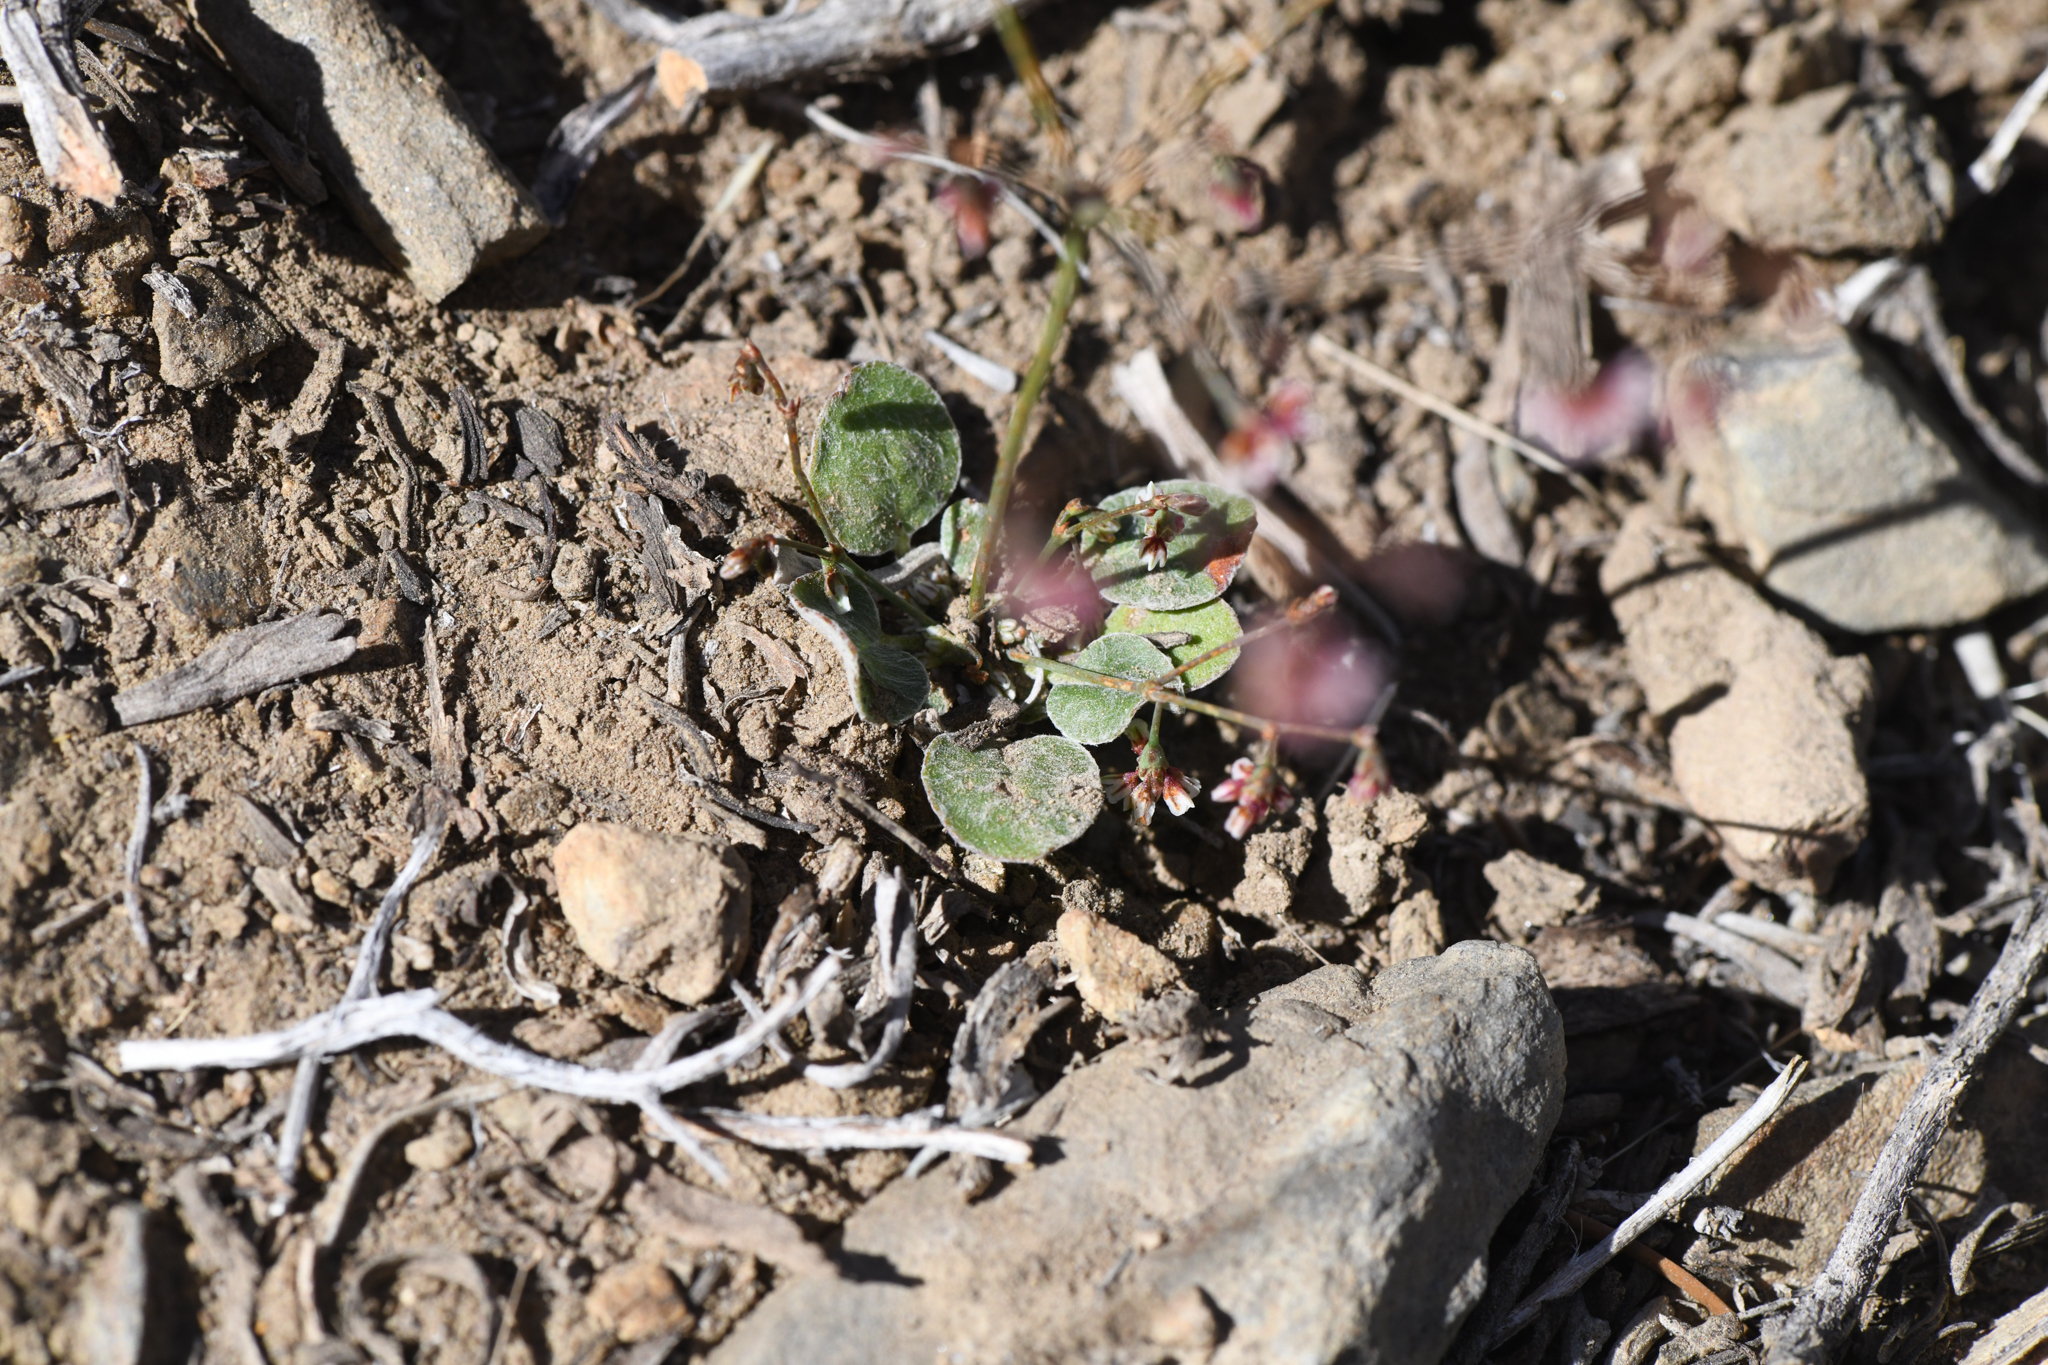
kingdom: Plantae
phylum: Tracheophyta
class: Magnoliopsida
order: Caryophyllales
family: Polygonaceae
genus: Eriogonum
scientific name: Eriogonum cernuum
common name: Nodding wild buckwheat
